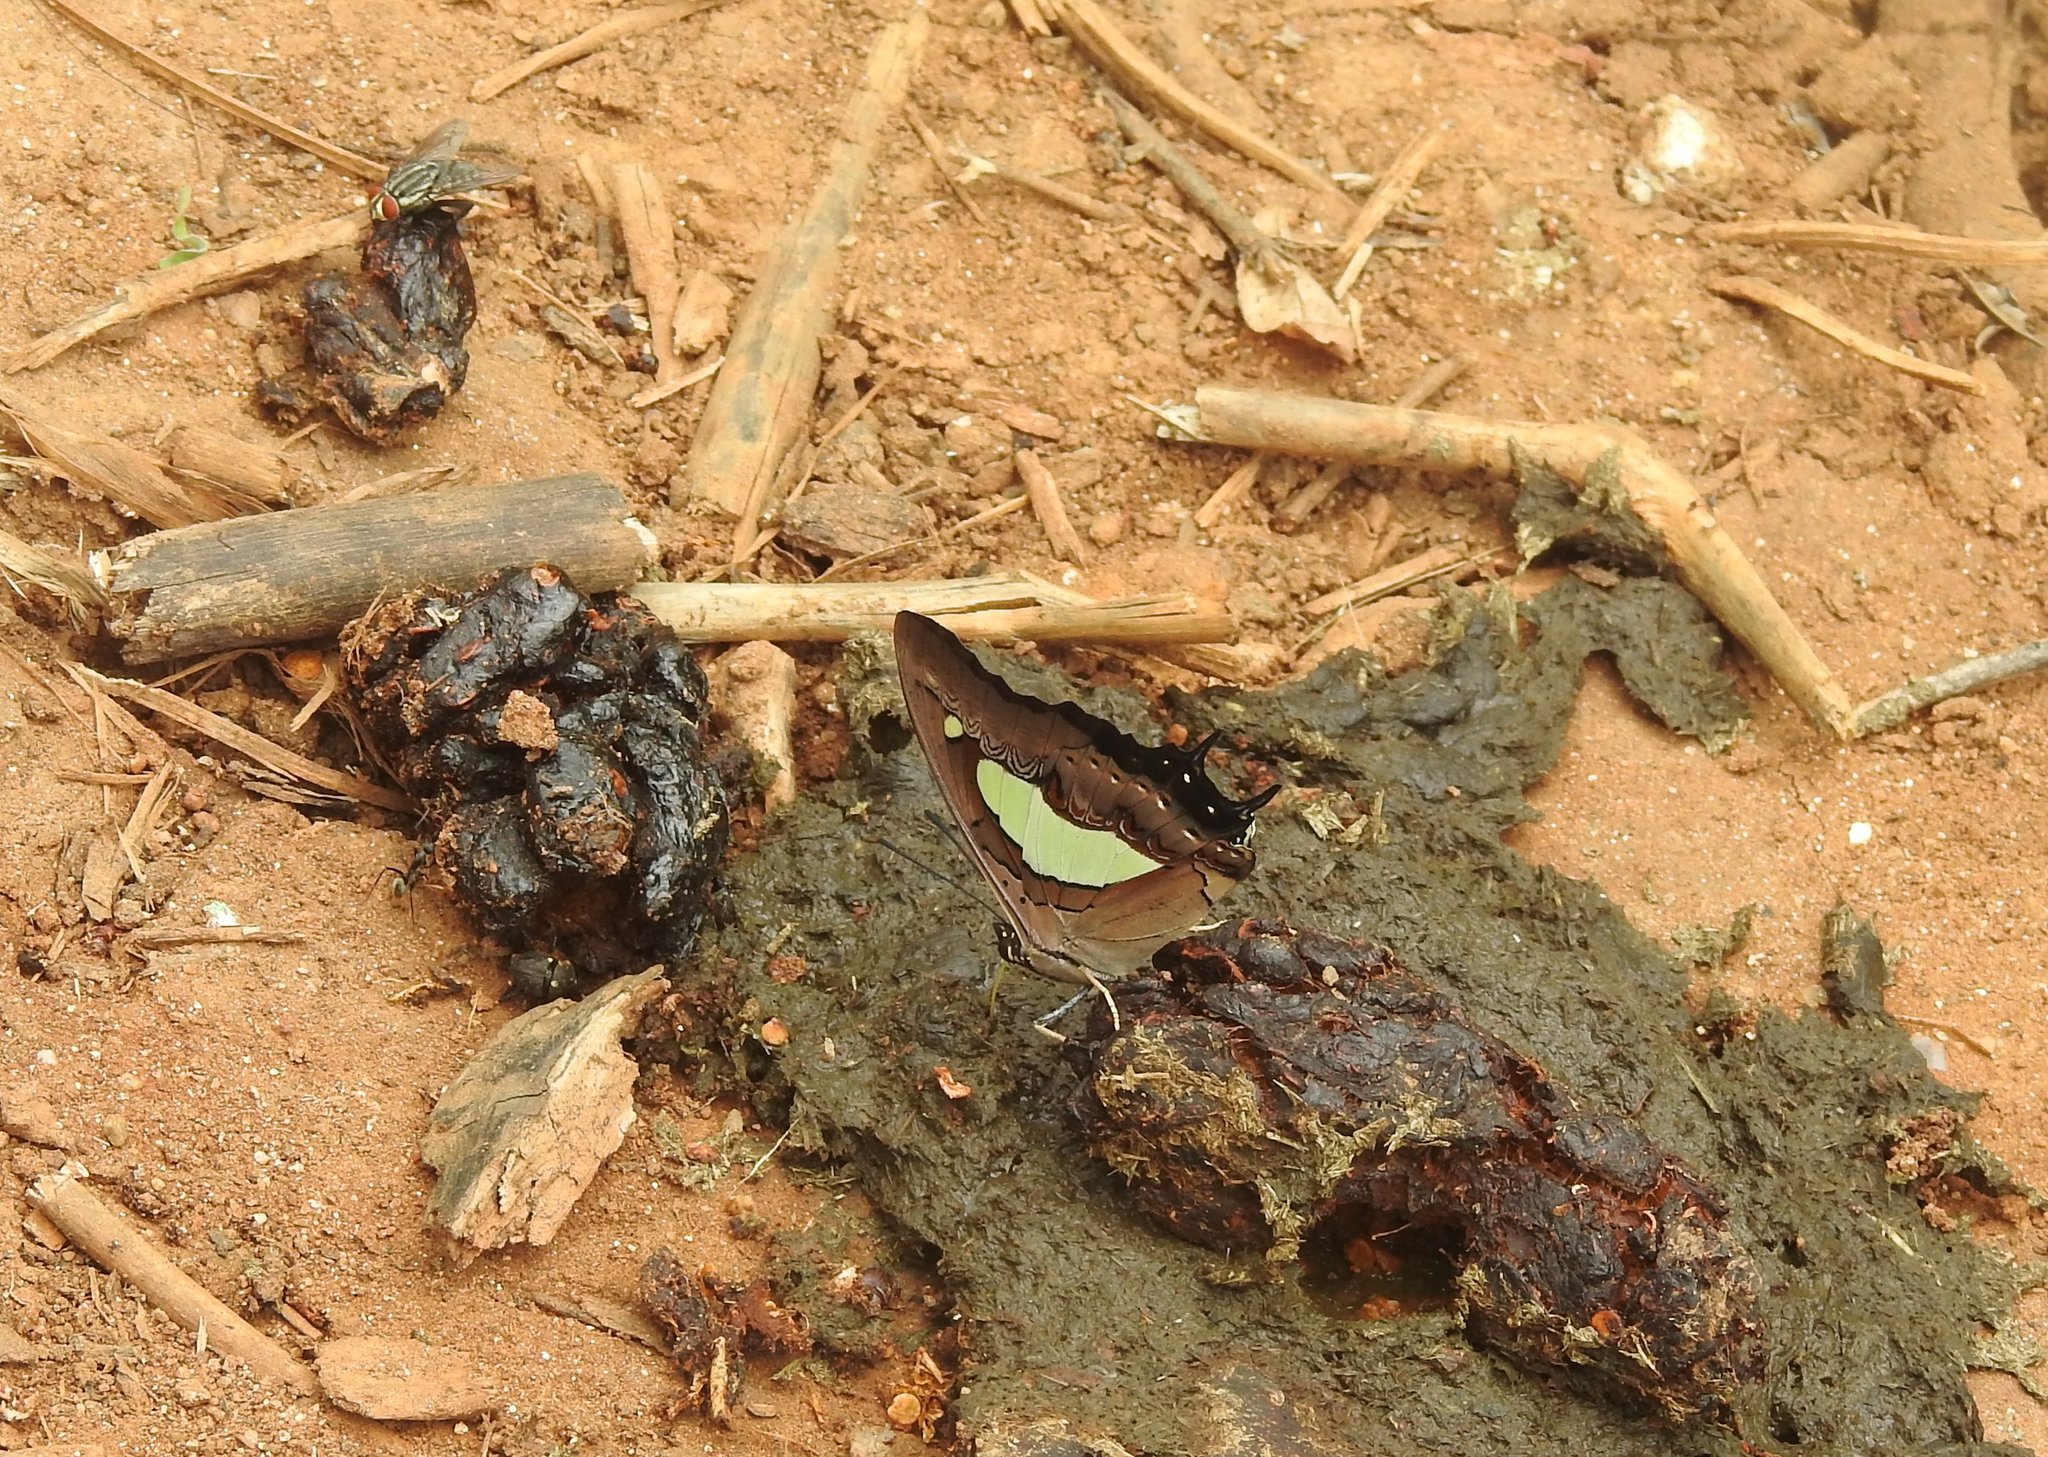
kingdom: Animalia
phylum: Arthropoda
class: Insecta
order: Lepidoptera
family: Nymphalidae
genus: Polyura
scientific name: Polyura
